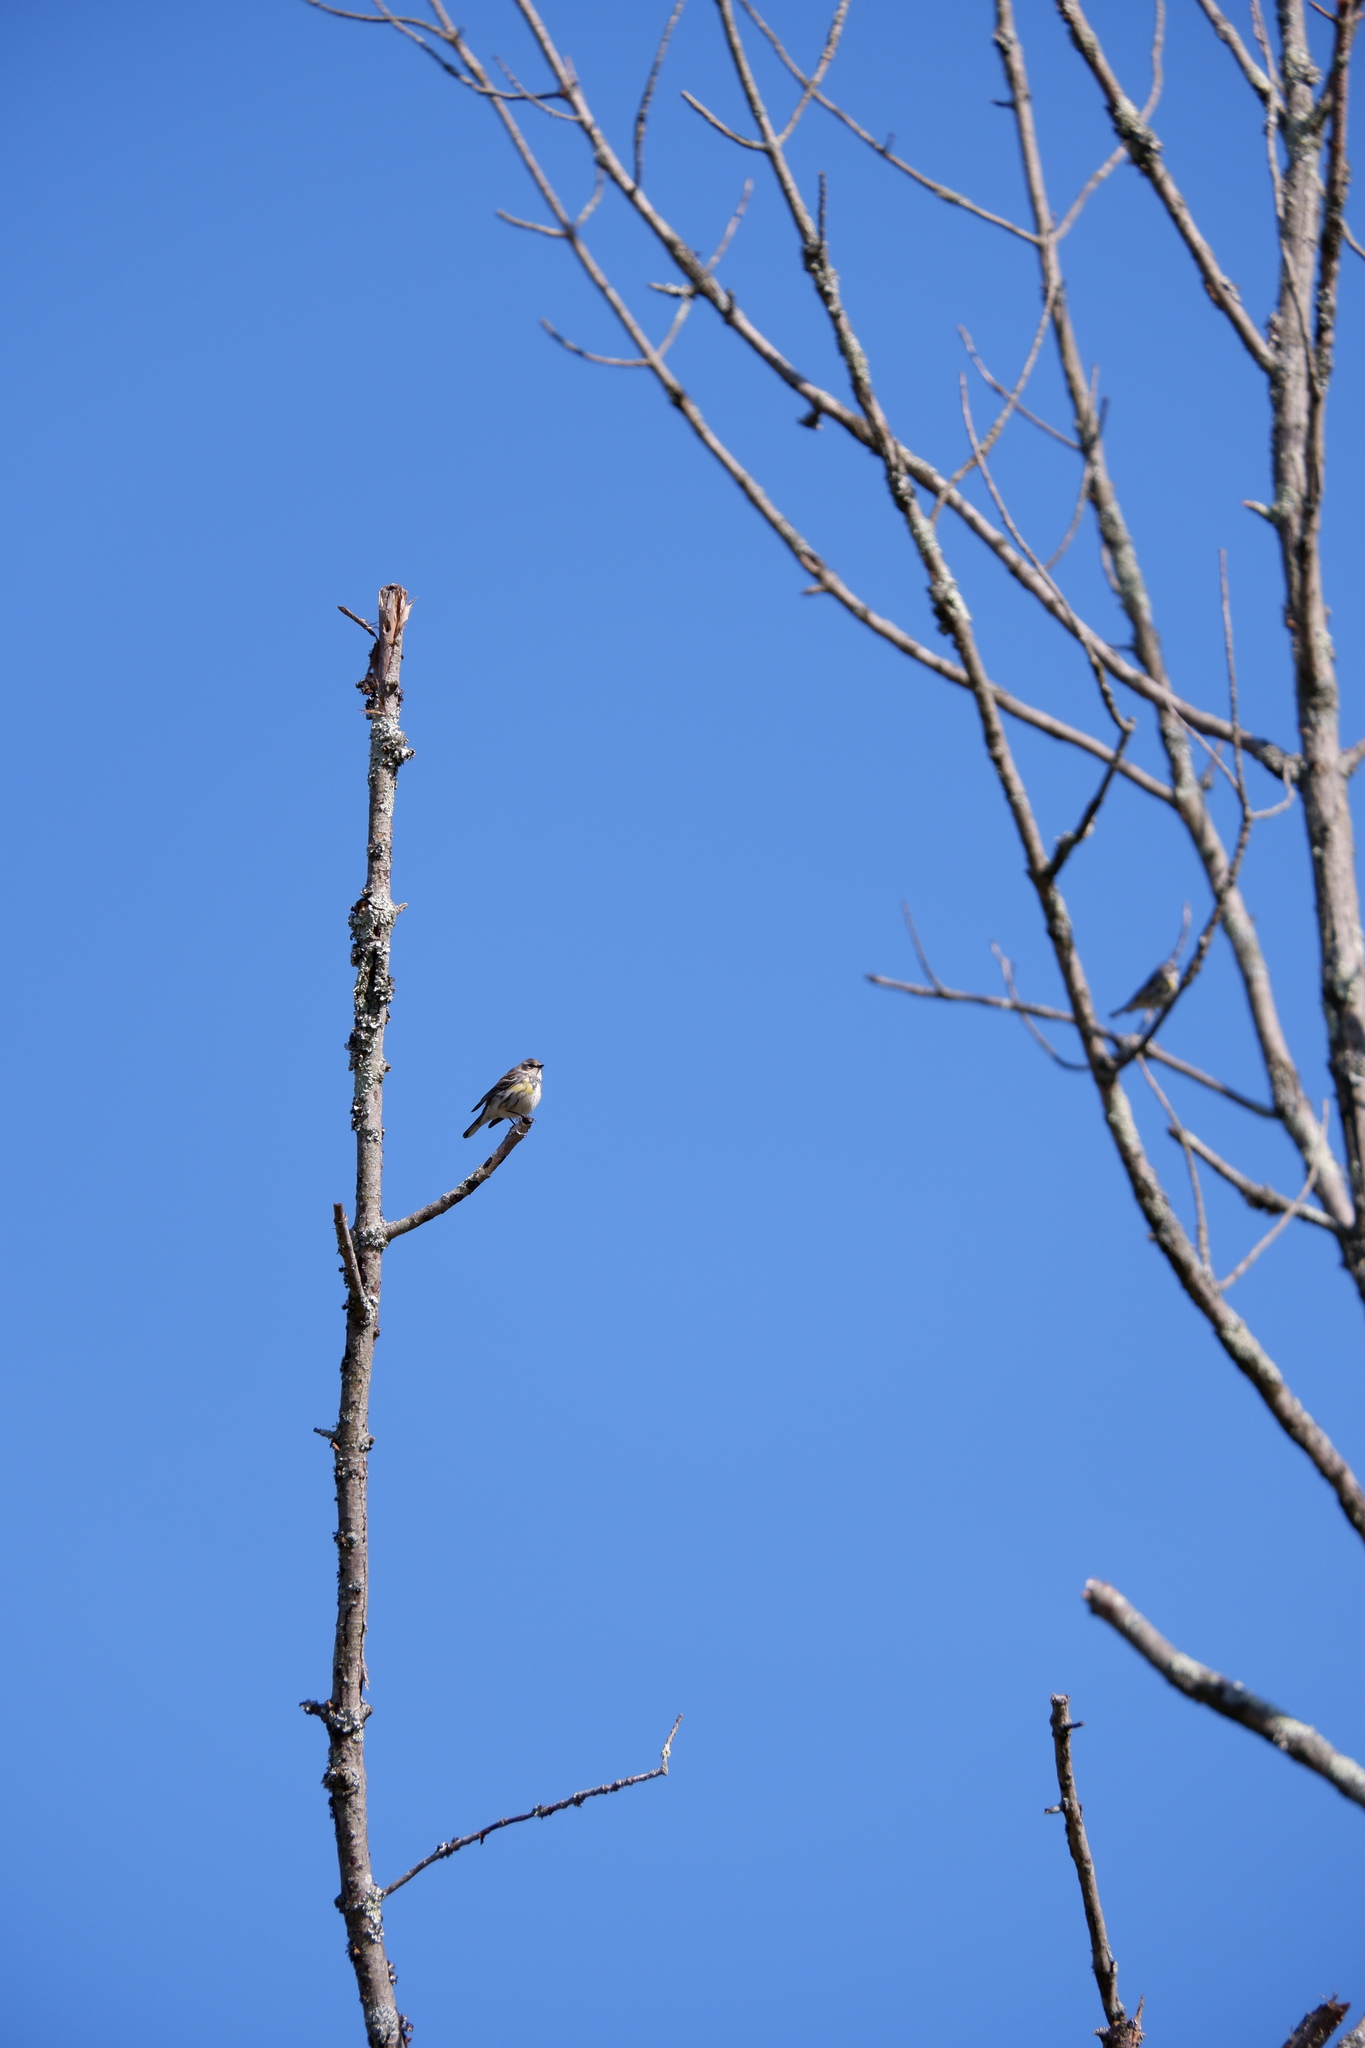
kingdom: Animalia
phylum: Chordata
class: Aves
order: Passeriformes
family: Parulidae
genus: Setophaga
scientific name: Setophaga coronata
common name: Myrtle warbler
